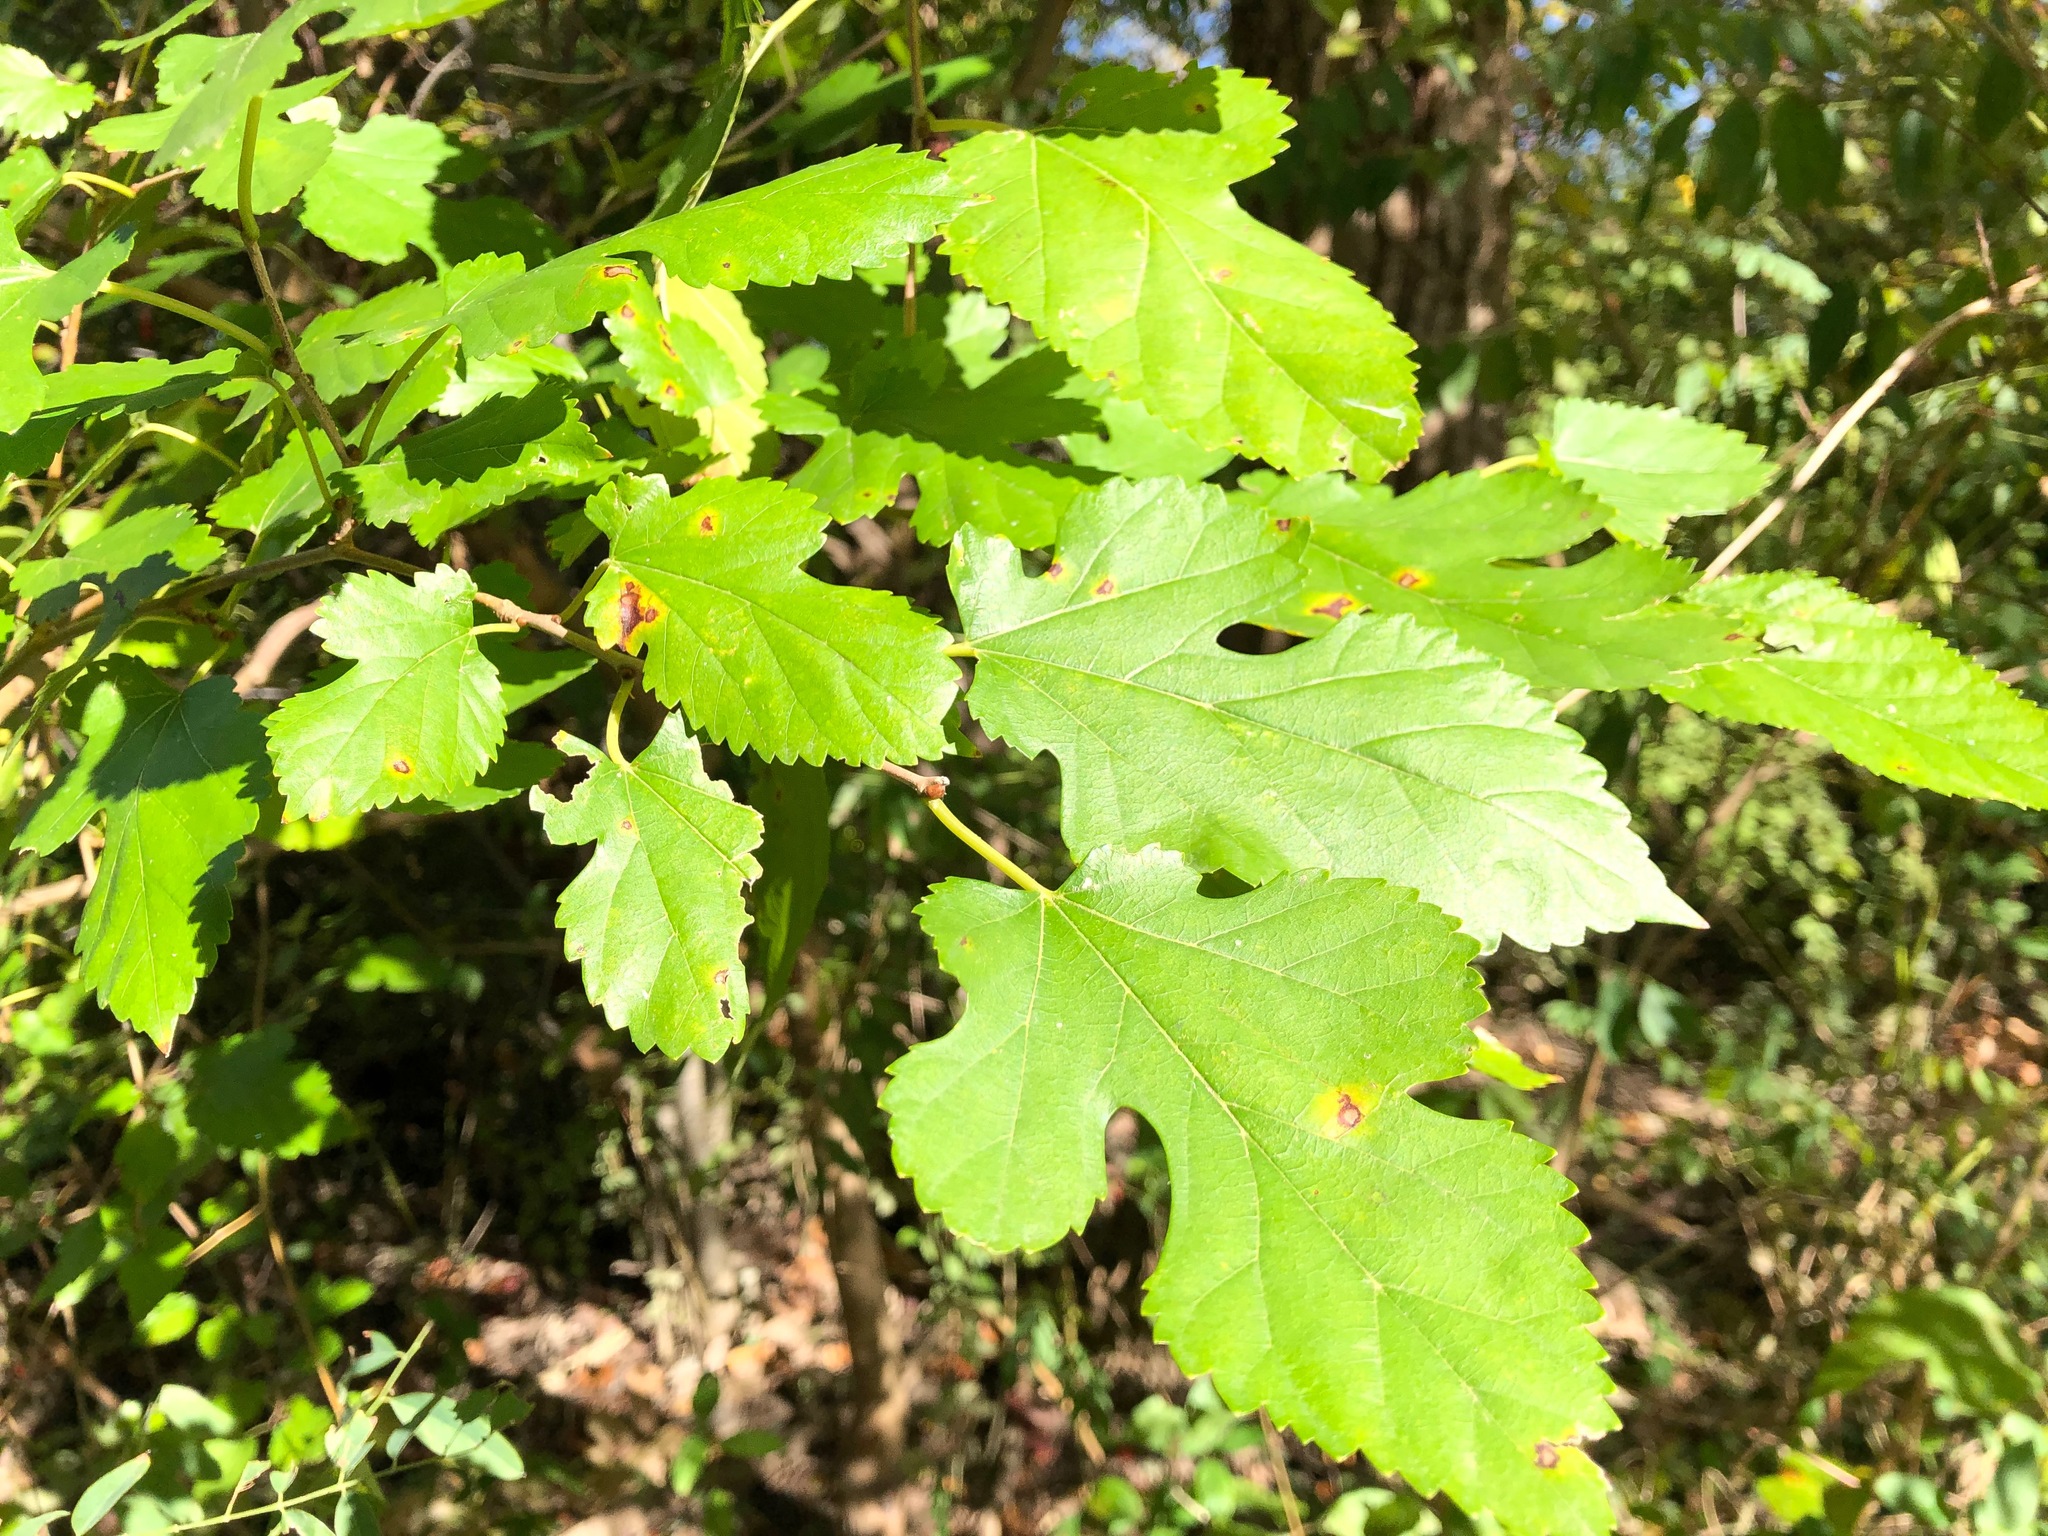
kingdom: Plantae
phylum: Tracheophyta
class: Magnoliopsida
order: Rosales
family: Moraceae
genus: Morus
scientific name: Morus alba
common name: White mulberry
